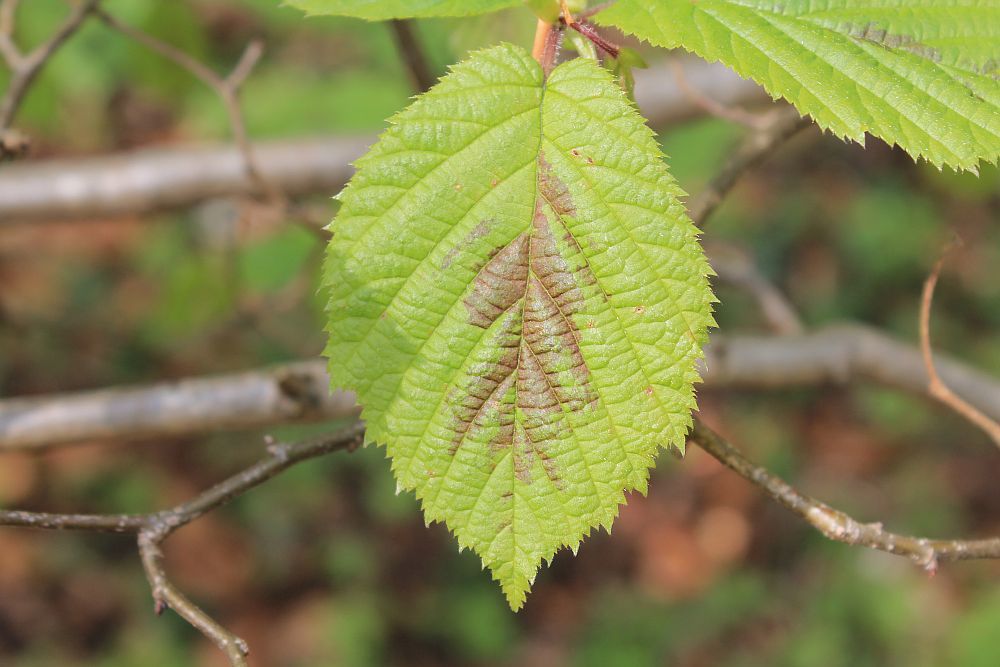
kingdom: Plantae
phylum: Tracheophyta
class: Magnoliopsida
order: Fagales
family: Betulaceae
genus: Corylus
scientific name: Corylus avellana
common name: European hazel
